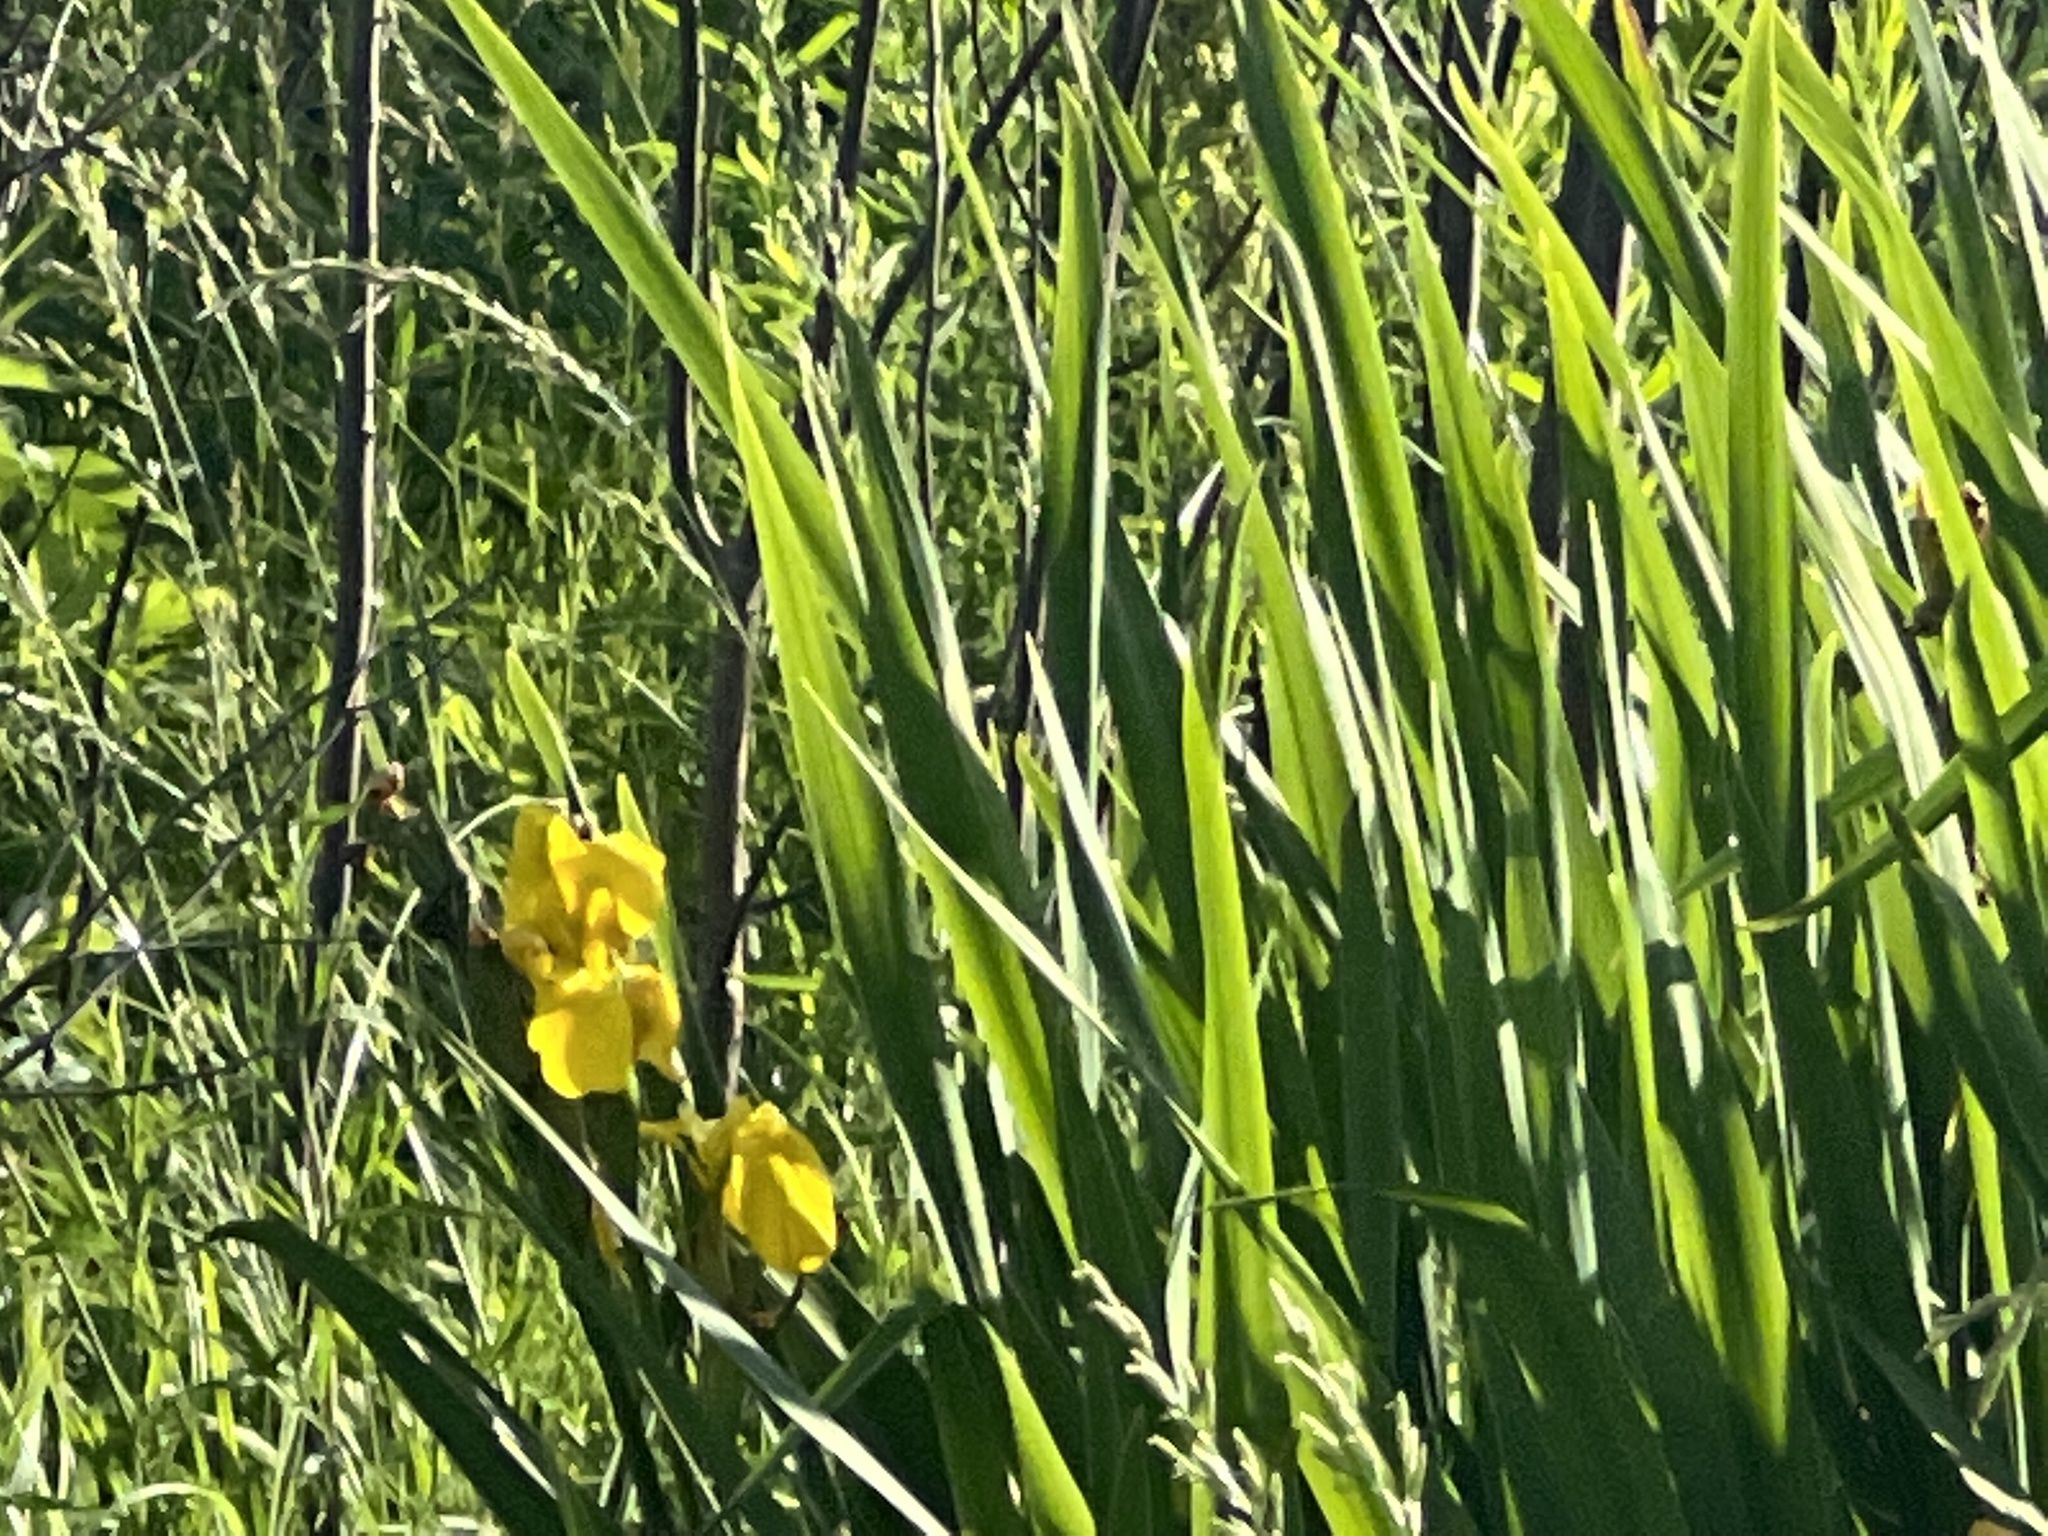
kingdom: Plantae
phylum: Tracheophyta
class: Liliopsida
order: Asparagales
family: Iridaceae
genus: Iris
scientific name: Iris pseudacorus
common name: Yellow flag
